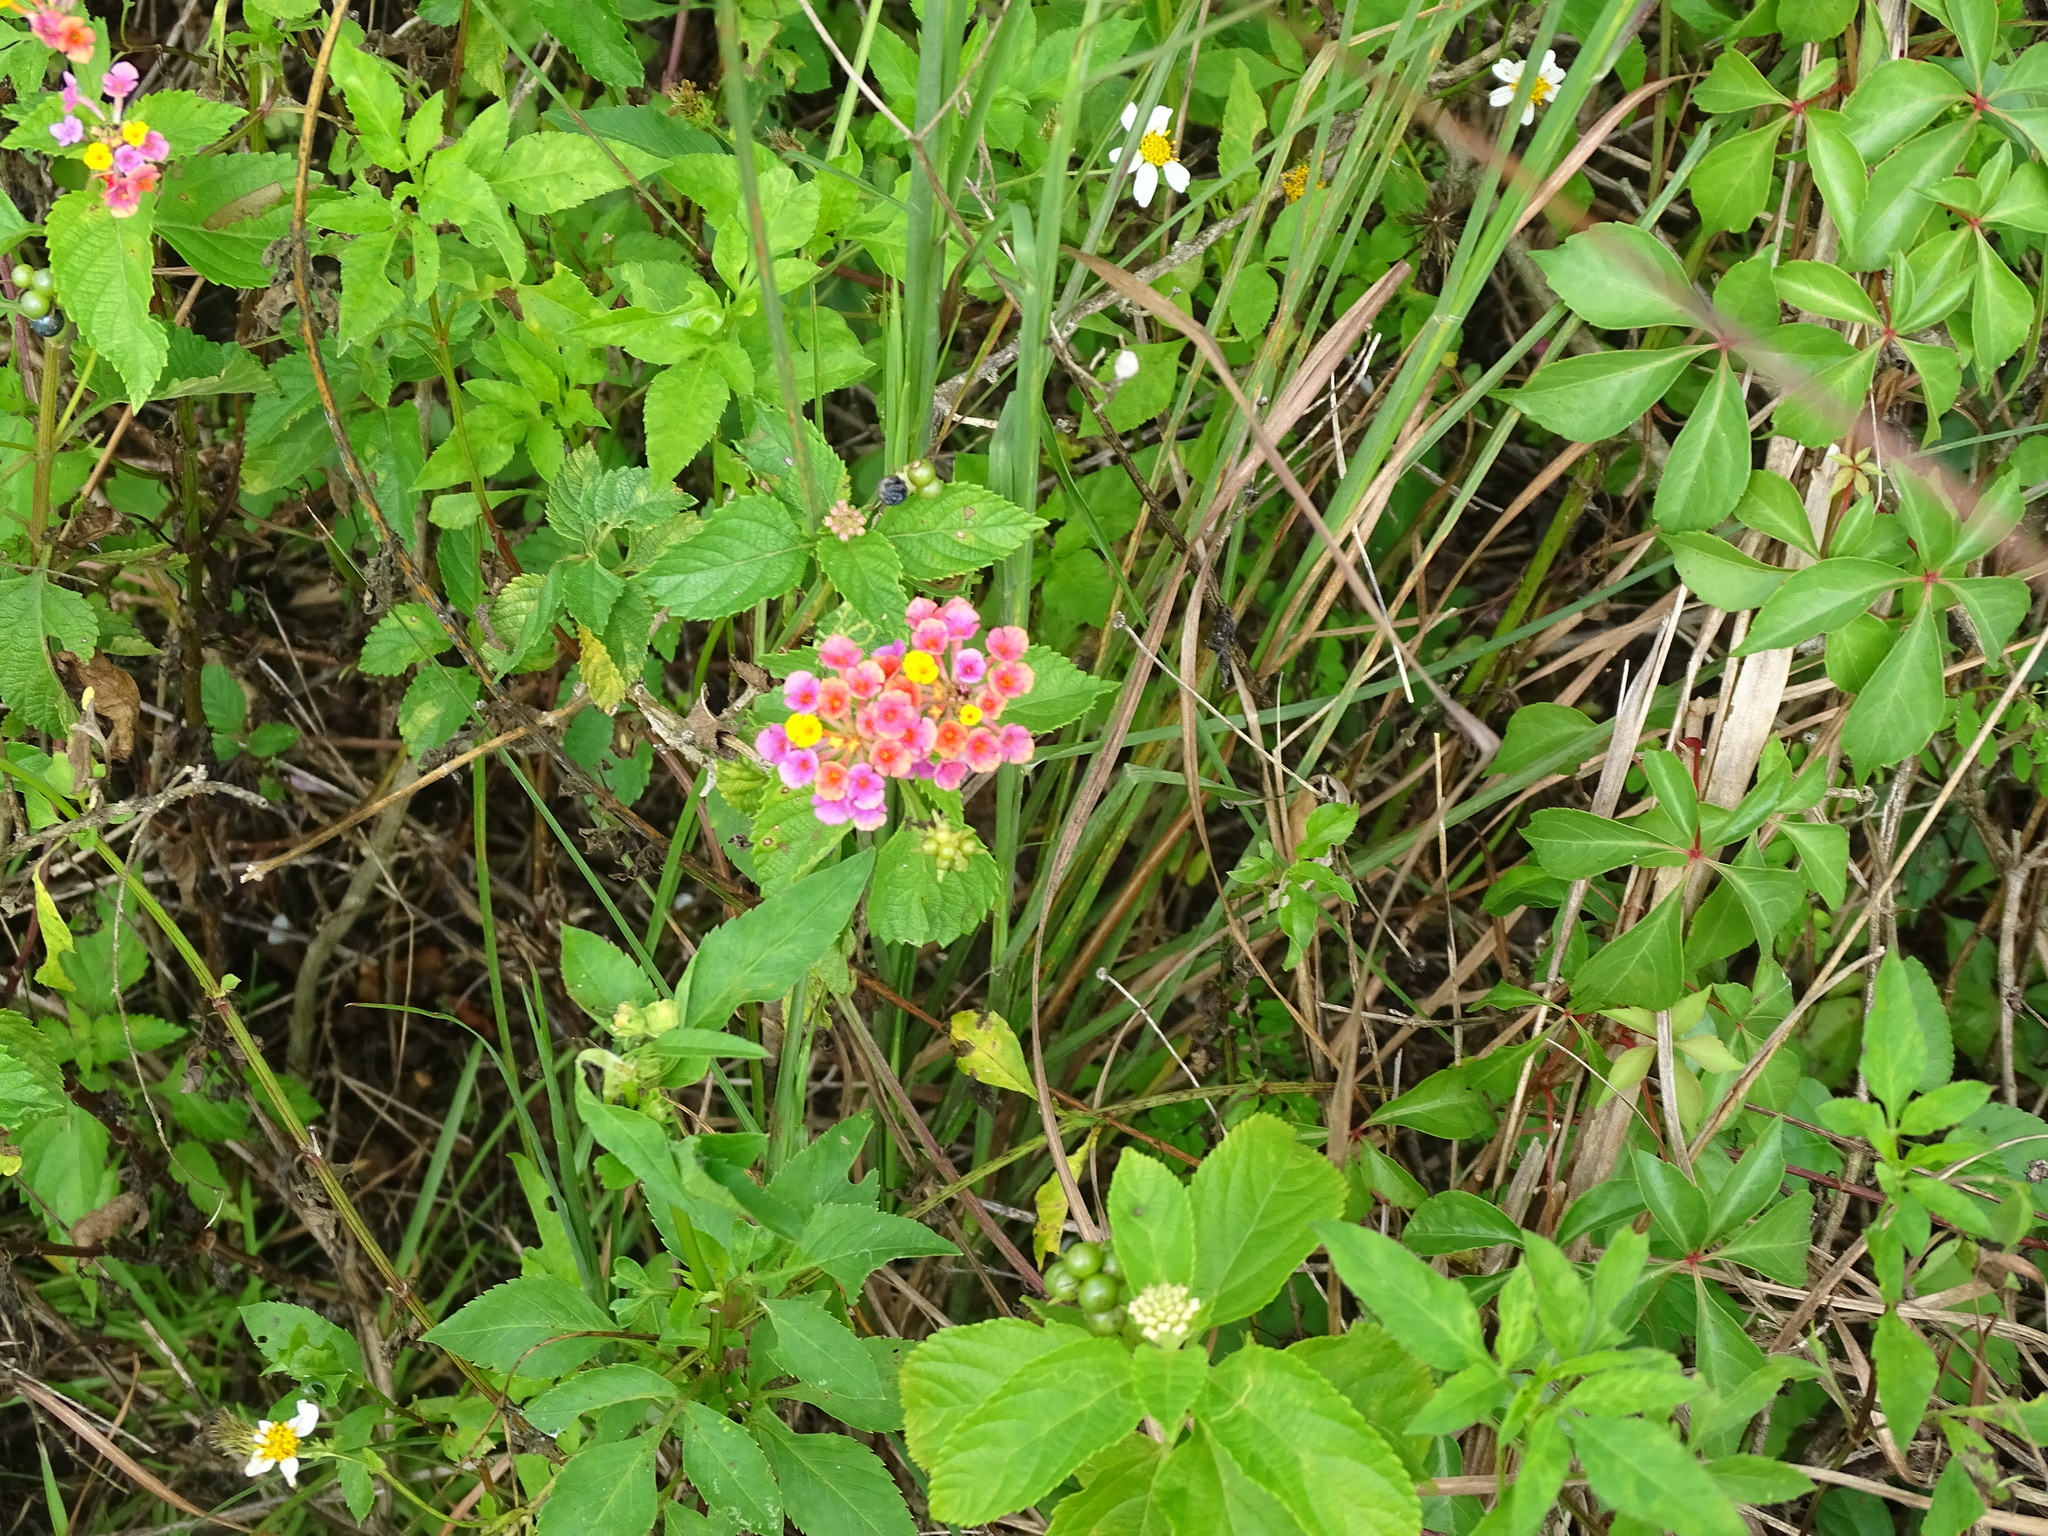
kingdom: Plantae
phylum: Tracheophyta
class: Magnoliopsida
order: Lamiales
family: Verbenaceae
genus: Lantana
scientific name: Lantana camara
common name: Lantana
